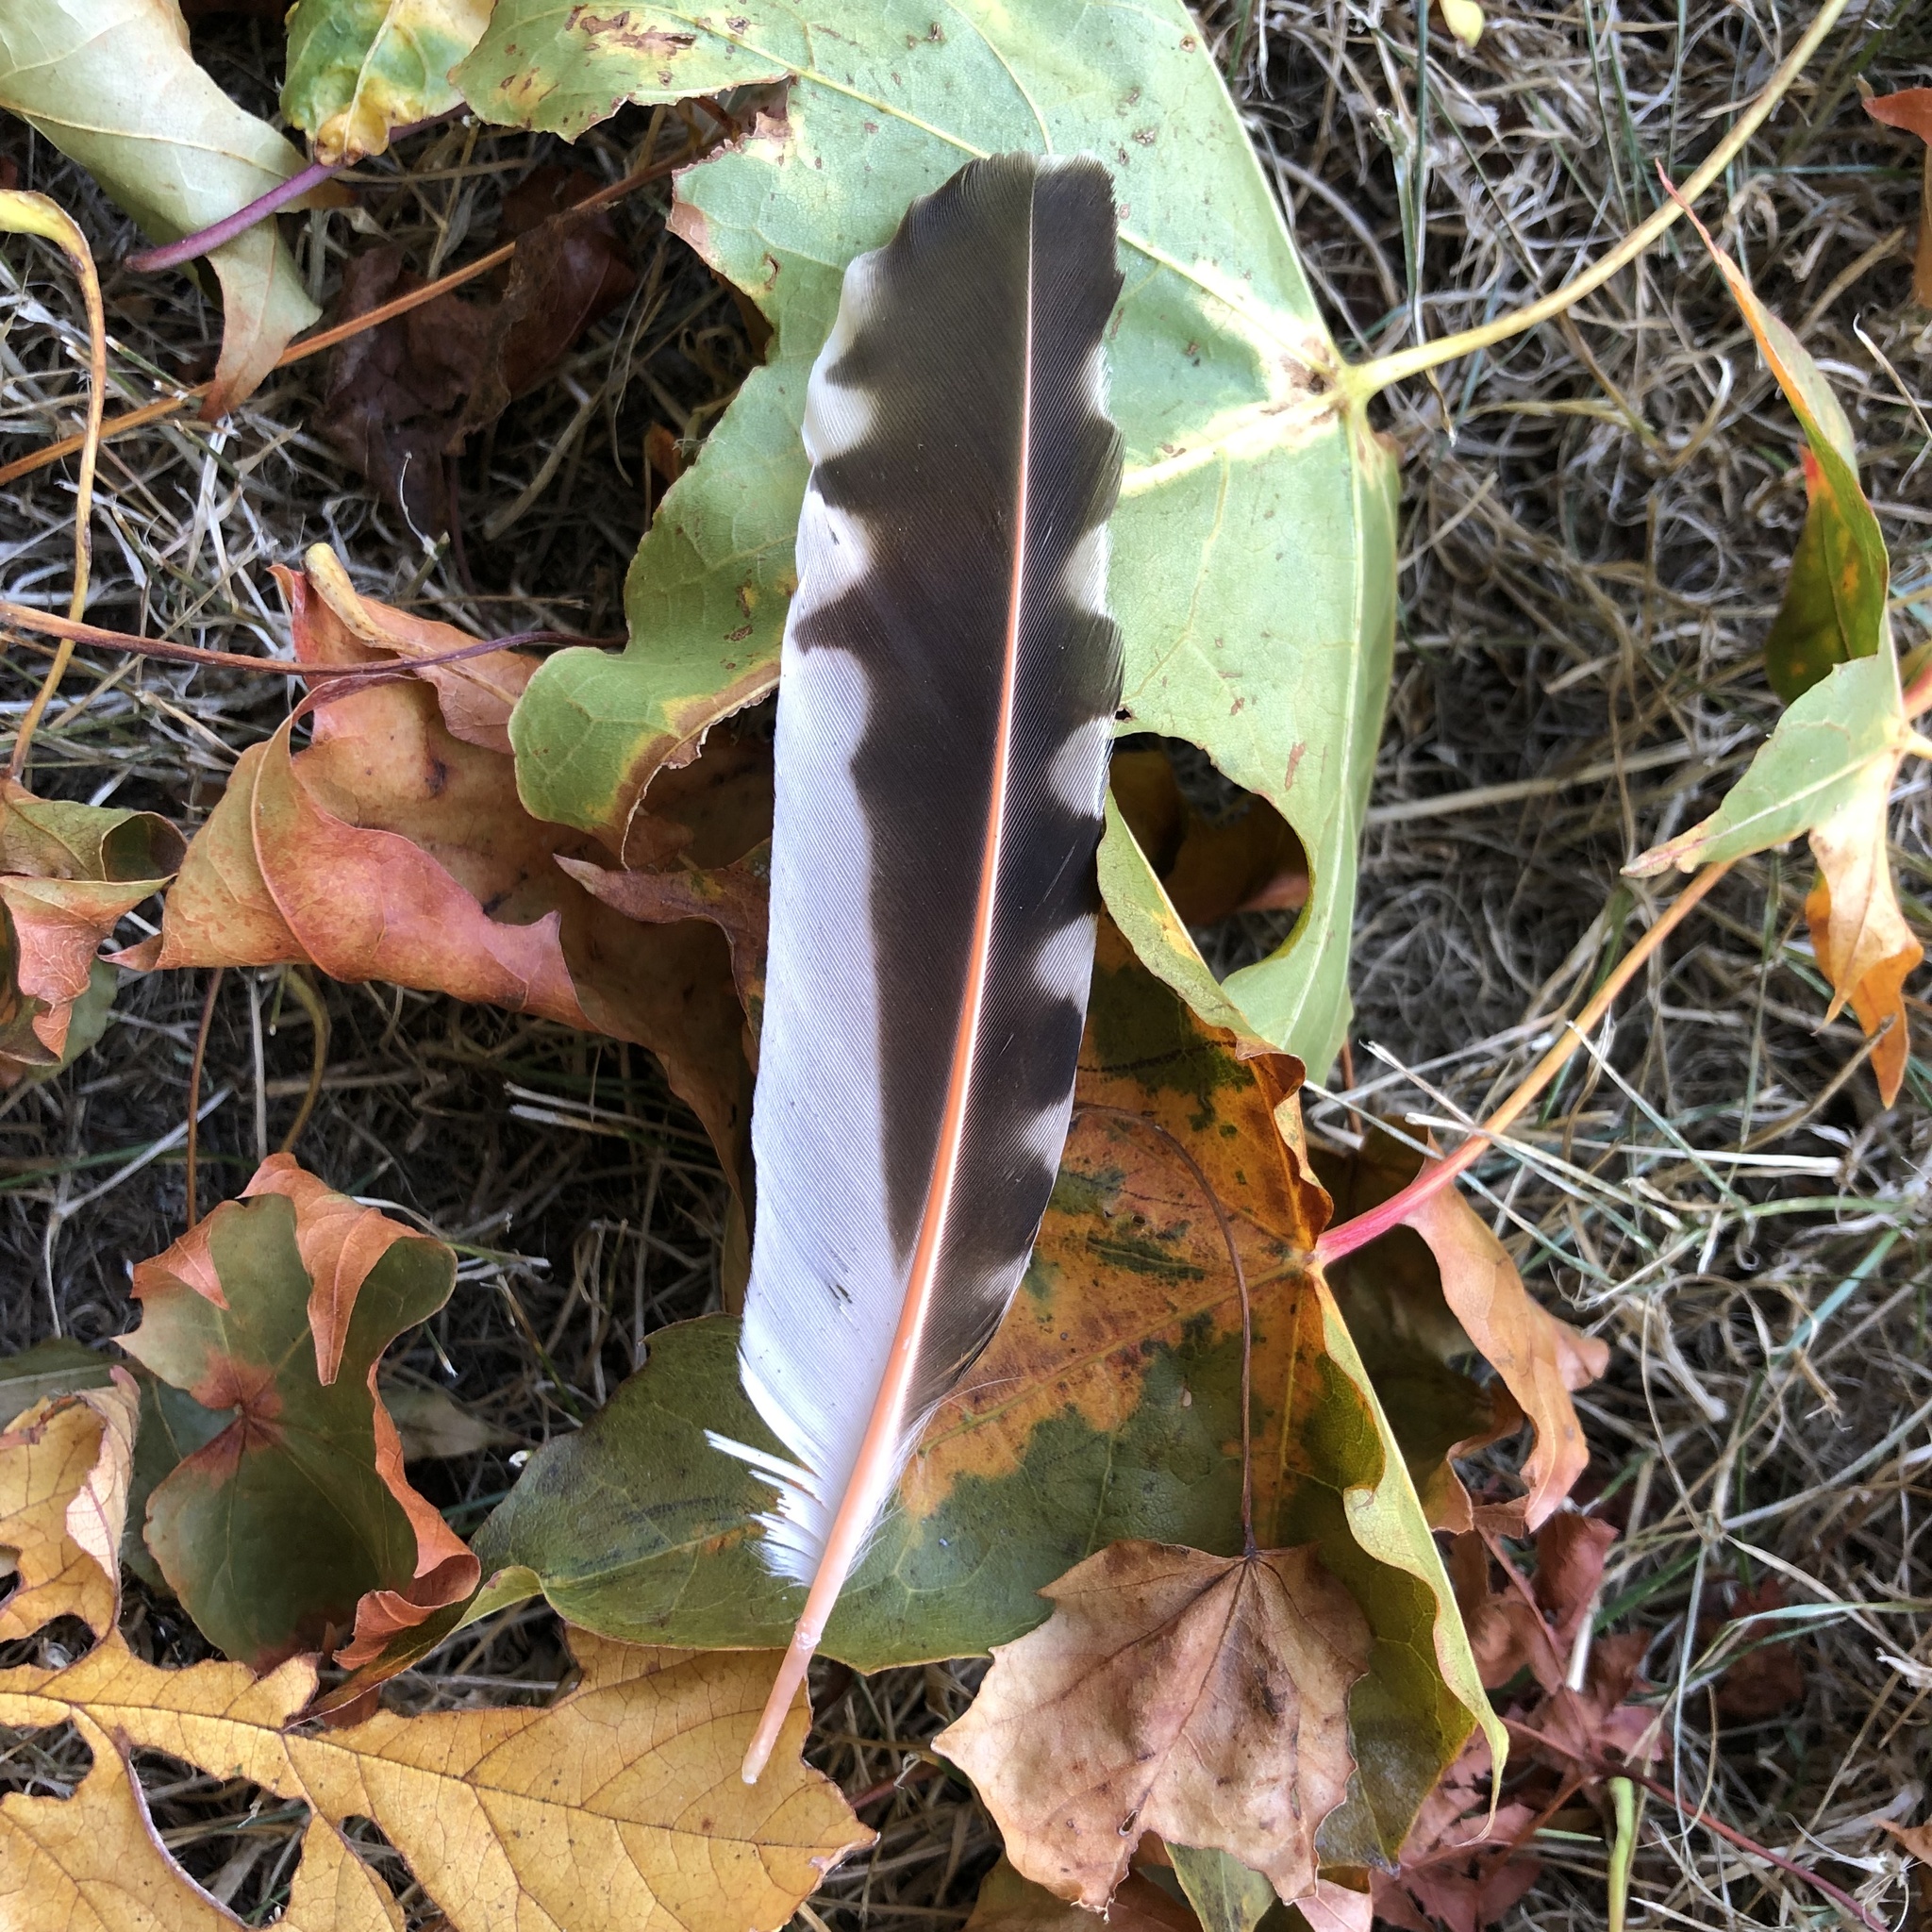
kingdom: Animalia
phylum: Chordata
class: Aves
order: Piciformes
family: Picidae
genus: Colaptes
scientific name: Colaptes auratus
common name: Northern flicker
